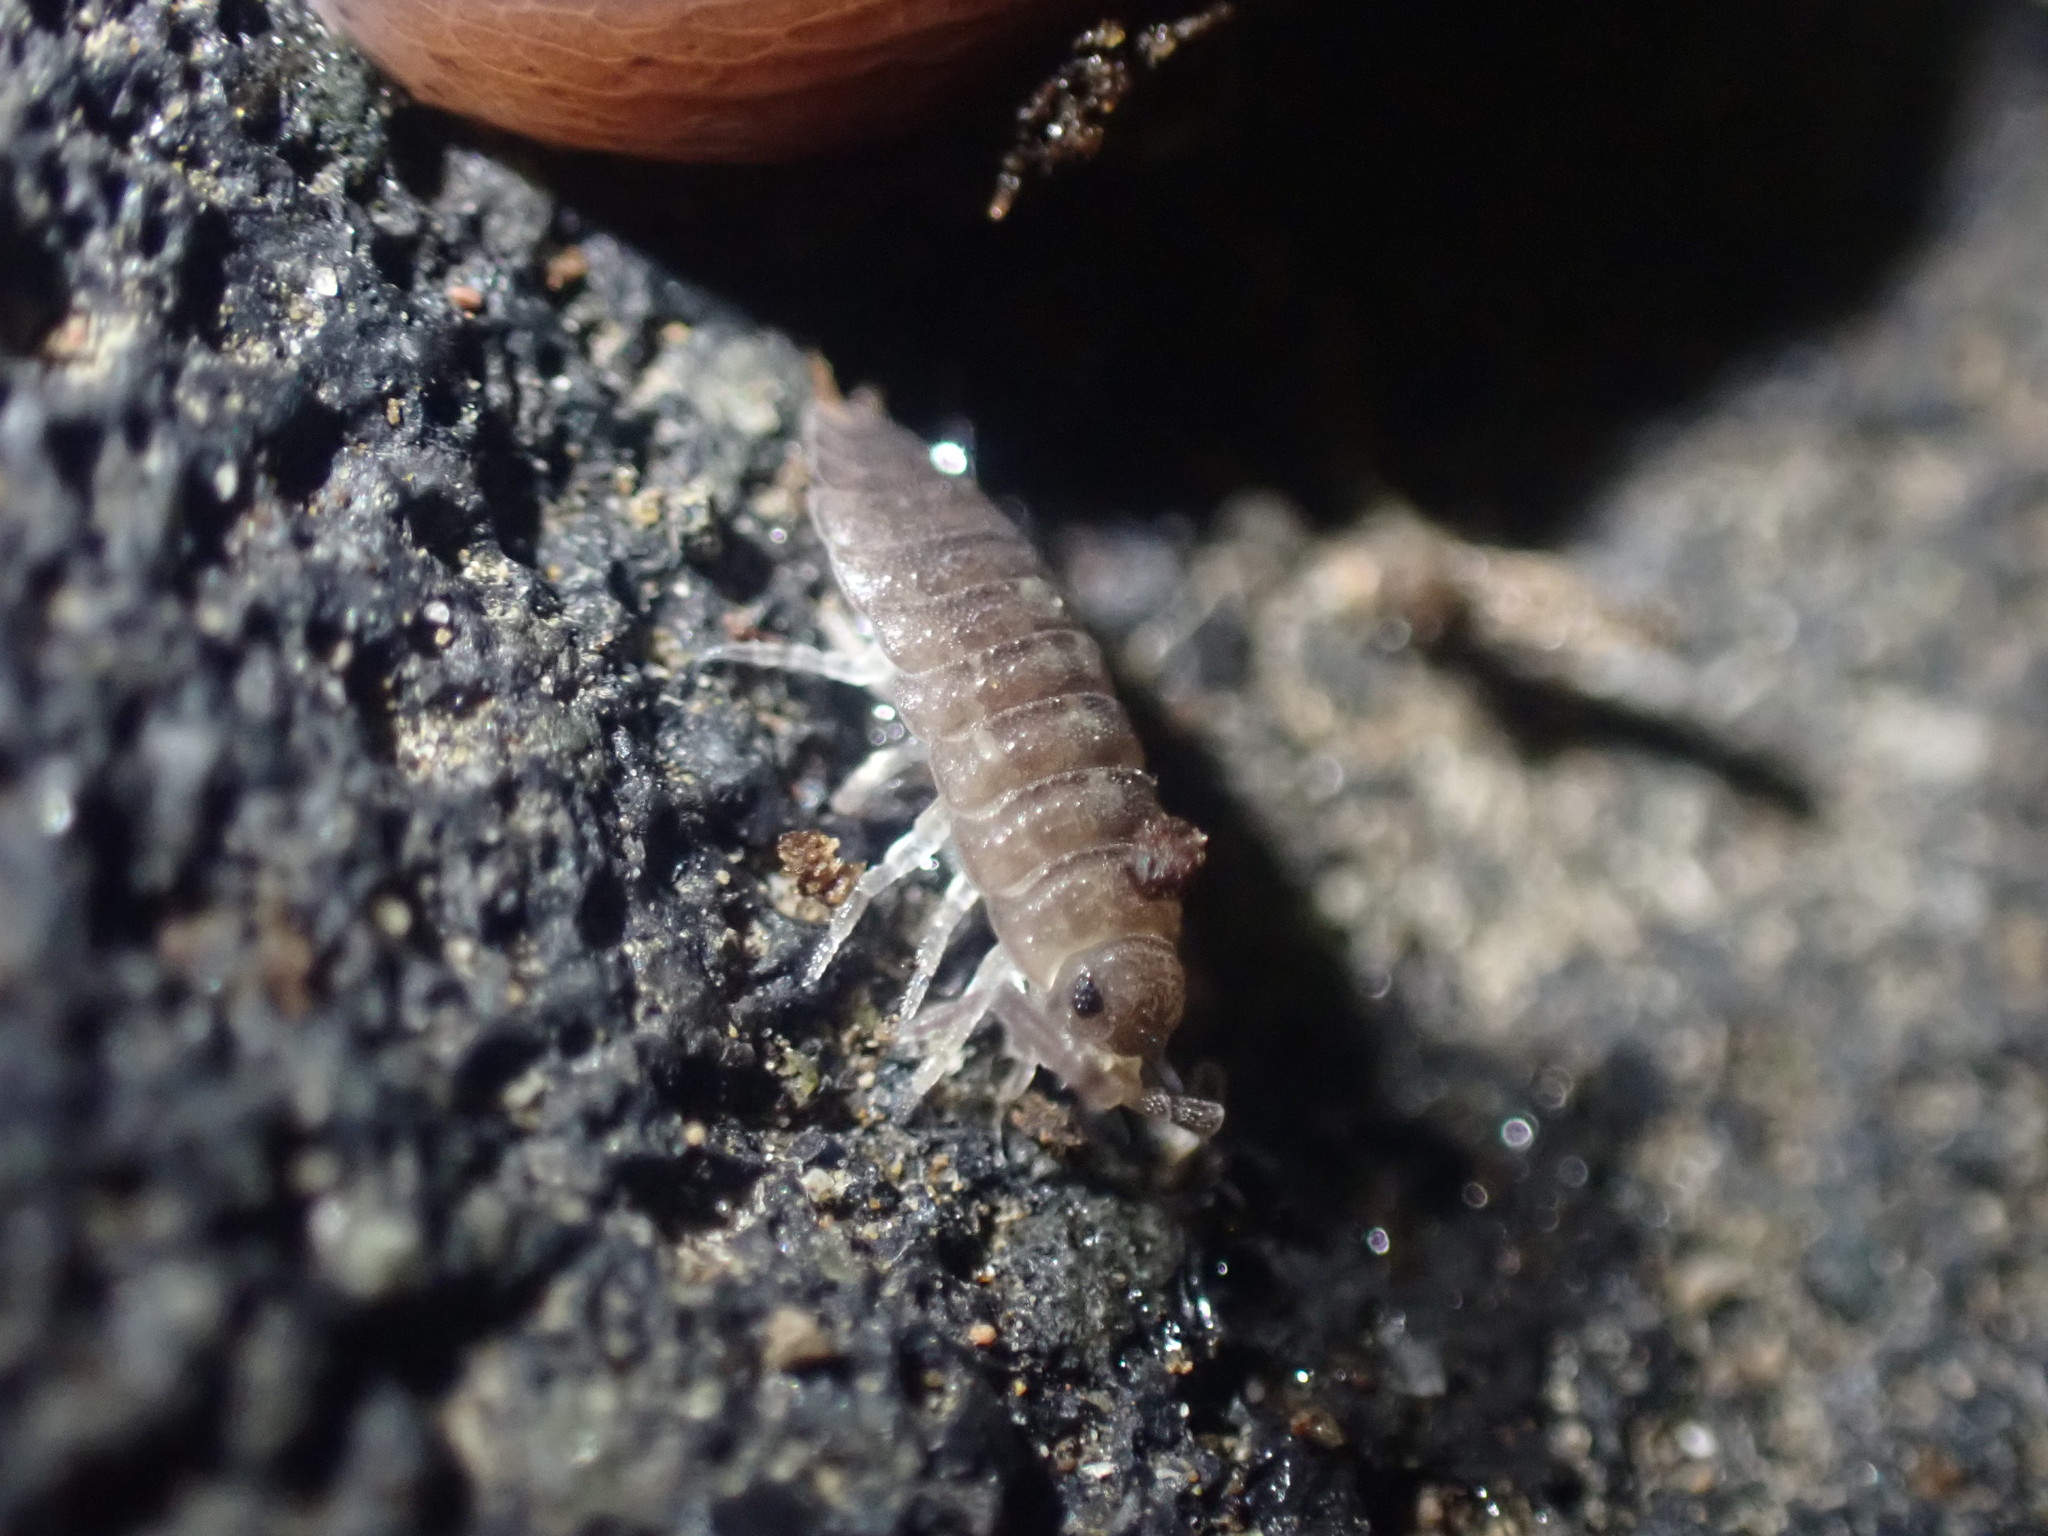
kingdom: Animalia
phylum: Arthropoda
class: Malacostraca
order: Isopoda
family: Porcellionidae
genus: Porcellio
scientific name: Porcellio scaber
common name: Common rough woodlouse
